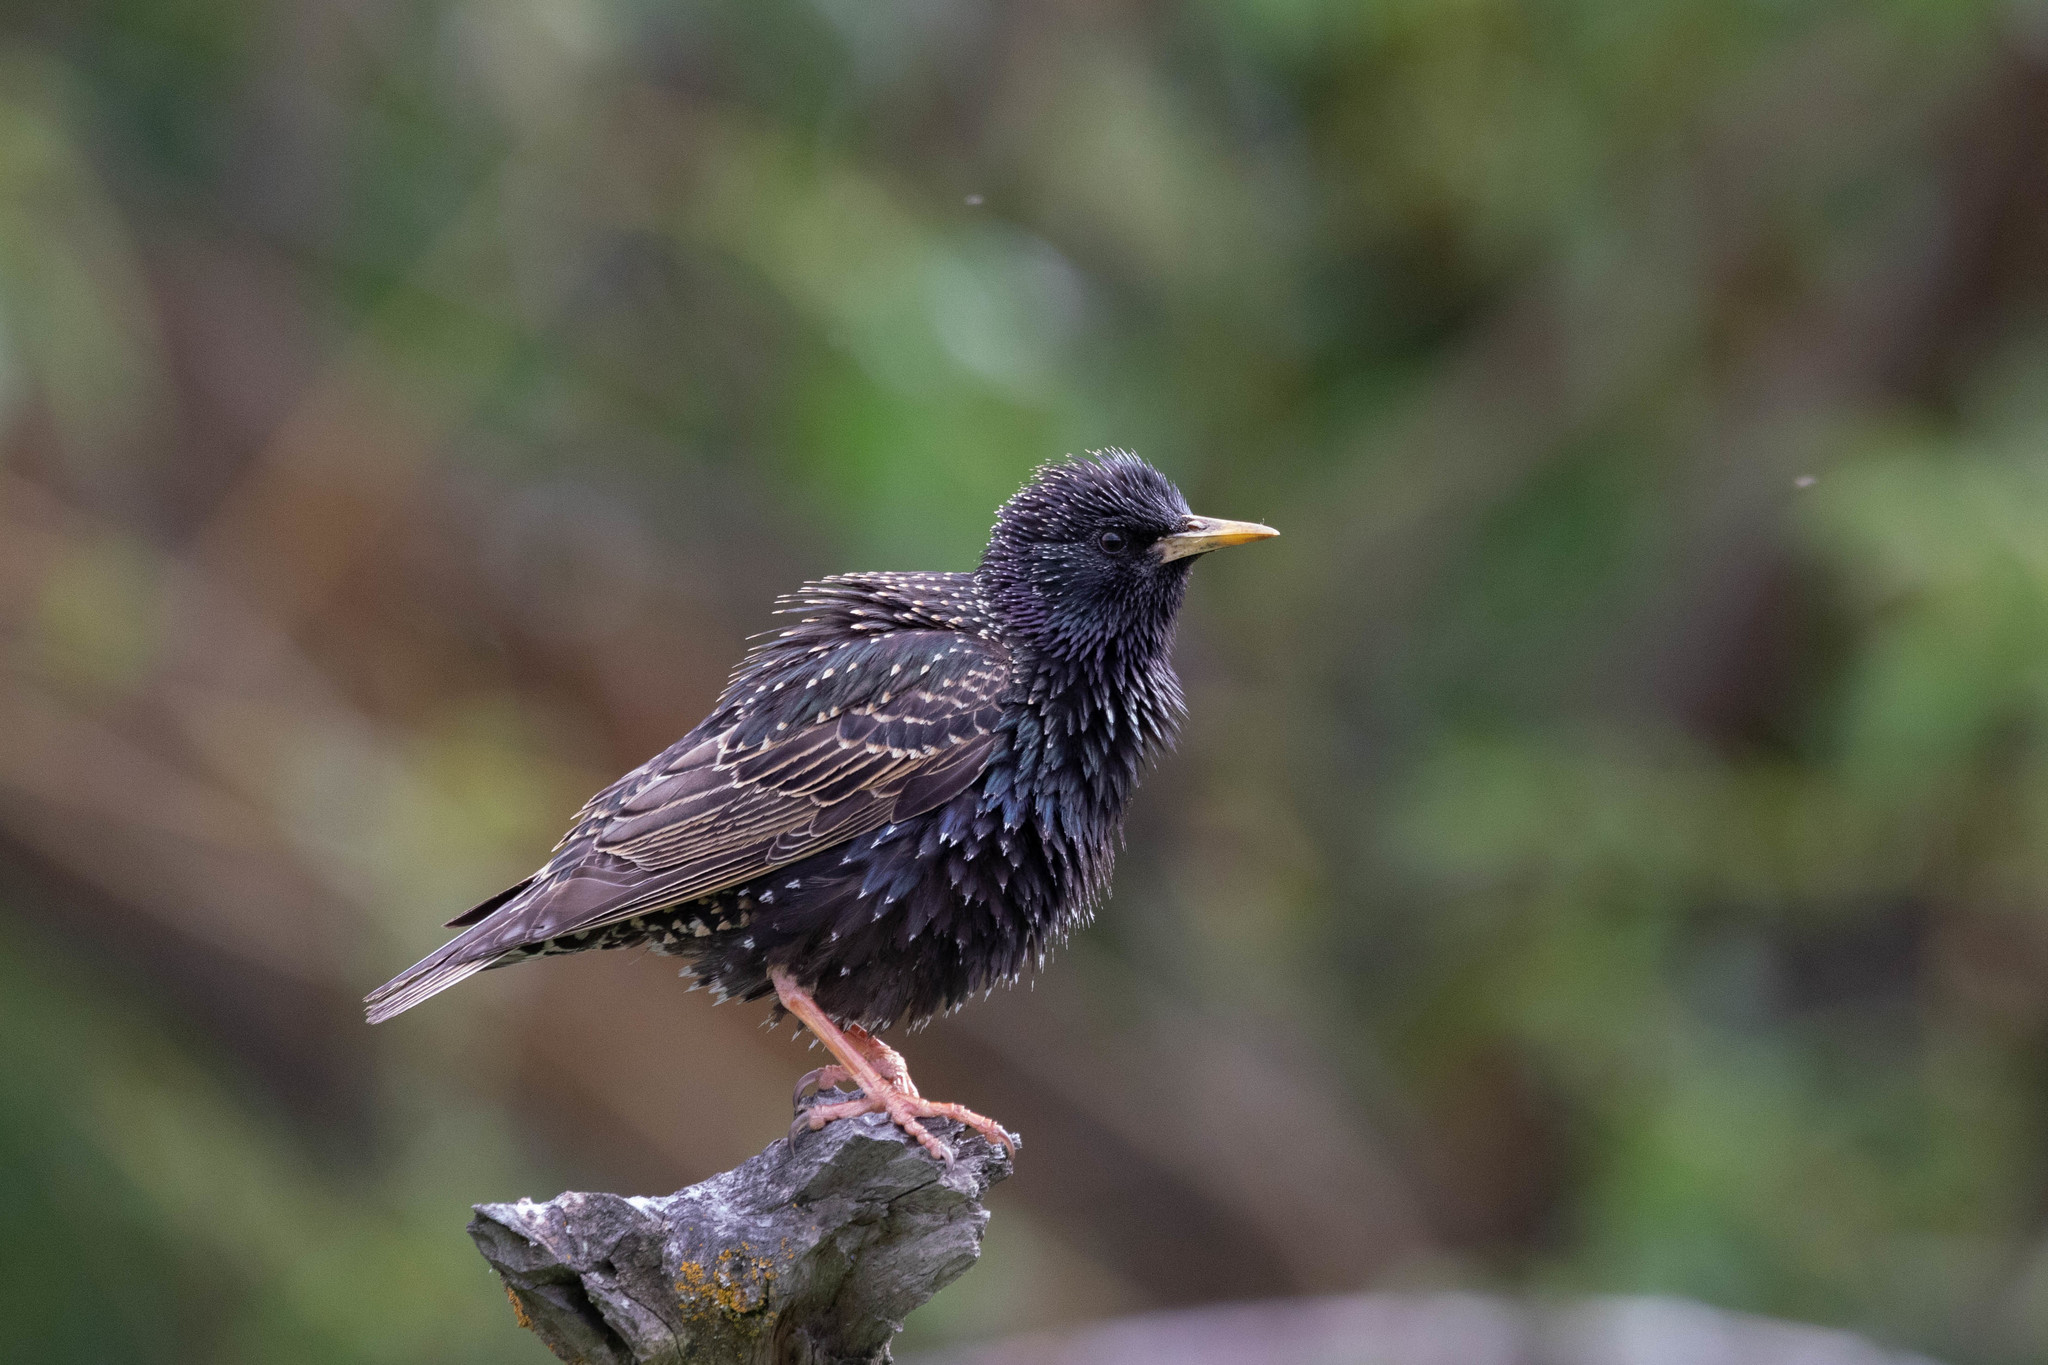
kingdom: Animalia
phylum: Chordata
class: Aves
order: Passeriformes
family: Sturnidae
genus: Sturnus
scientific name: Sturnus vulgaris
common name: Common starling
